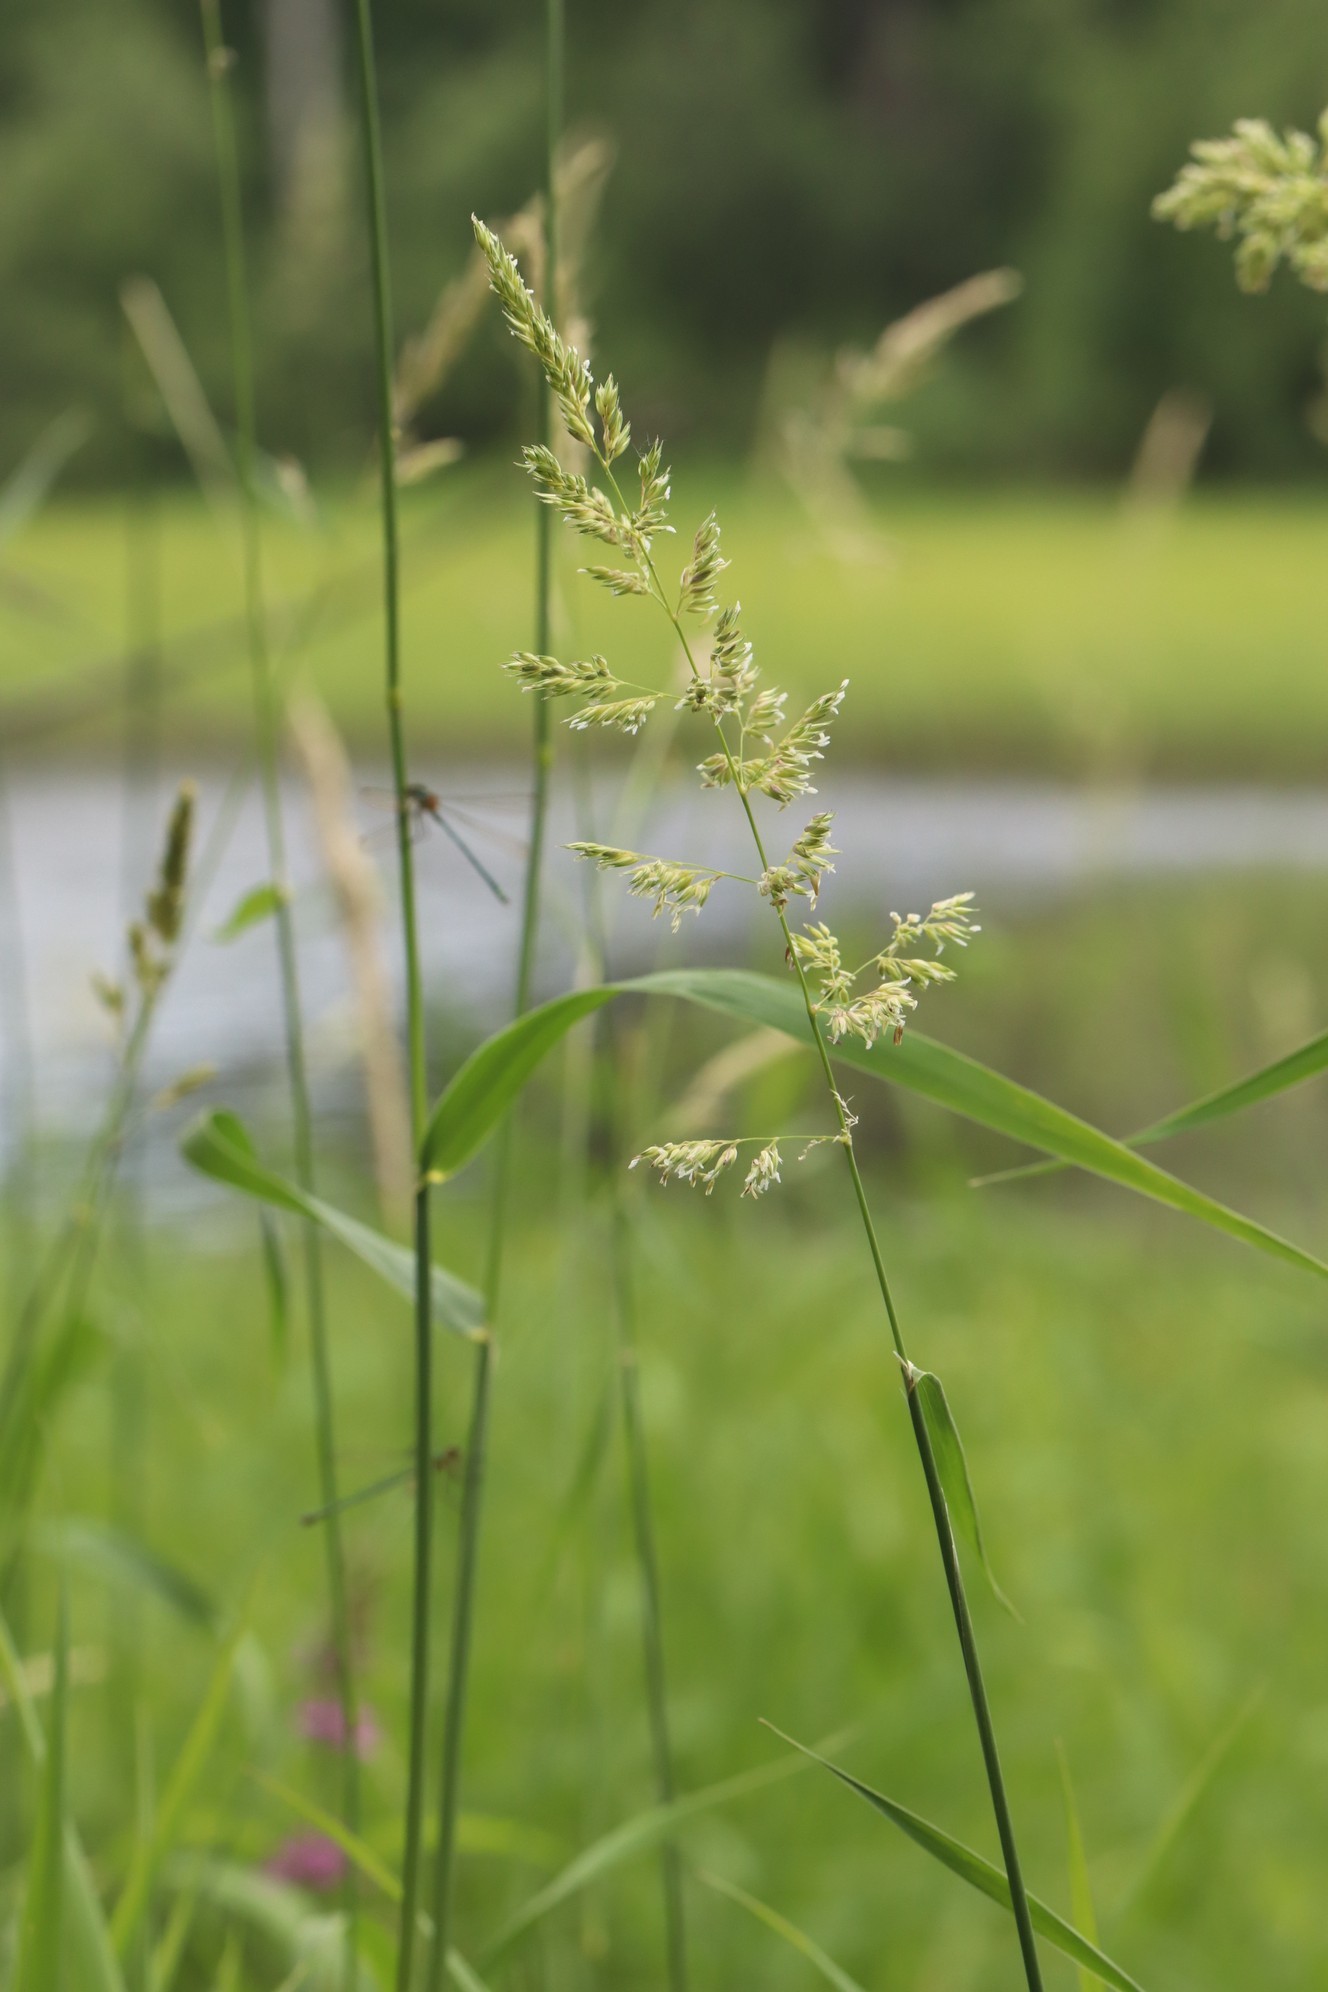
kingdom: Plantae
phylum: Tracheophyta
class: Liliopsida
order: Poales
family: Poaceae
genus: Phalaris
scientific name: Phalaris arundinacea
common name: Reed canary-grass
